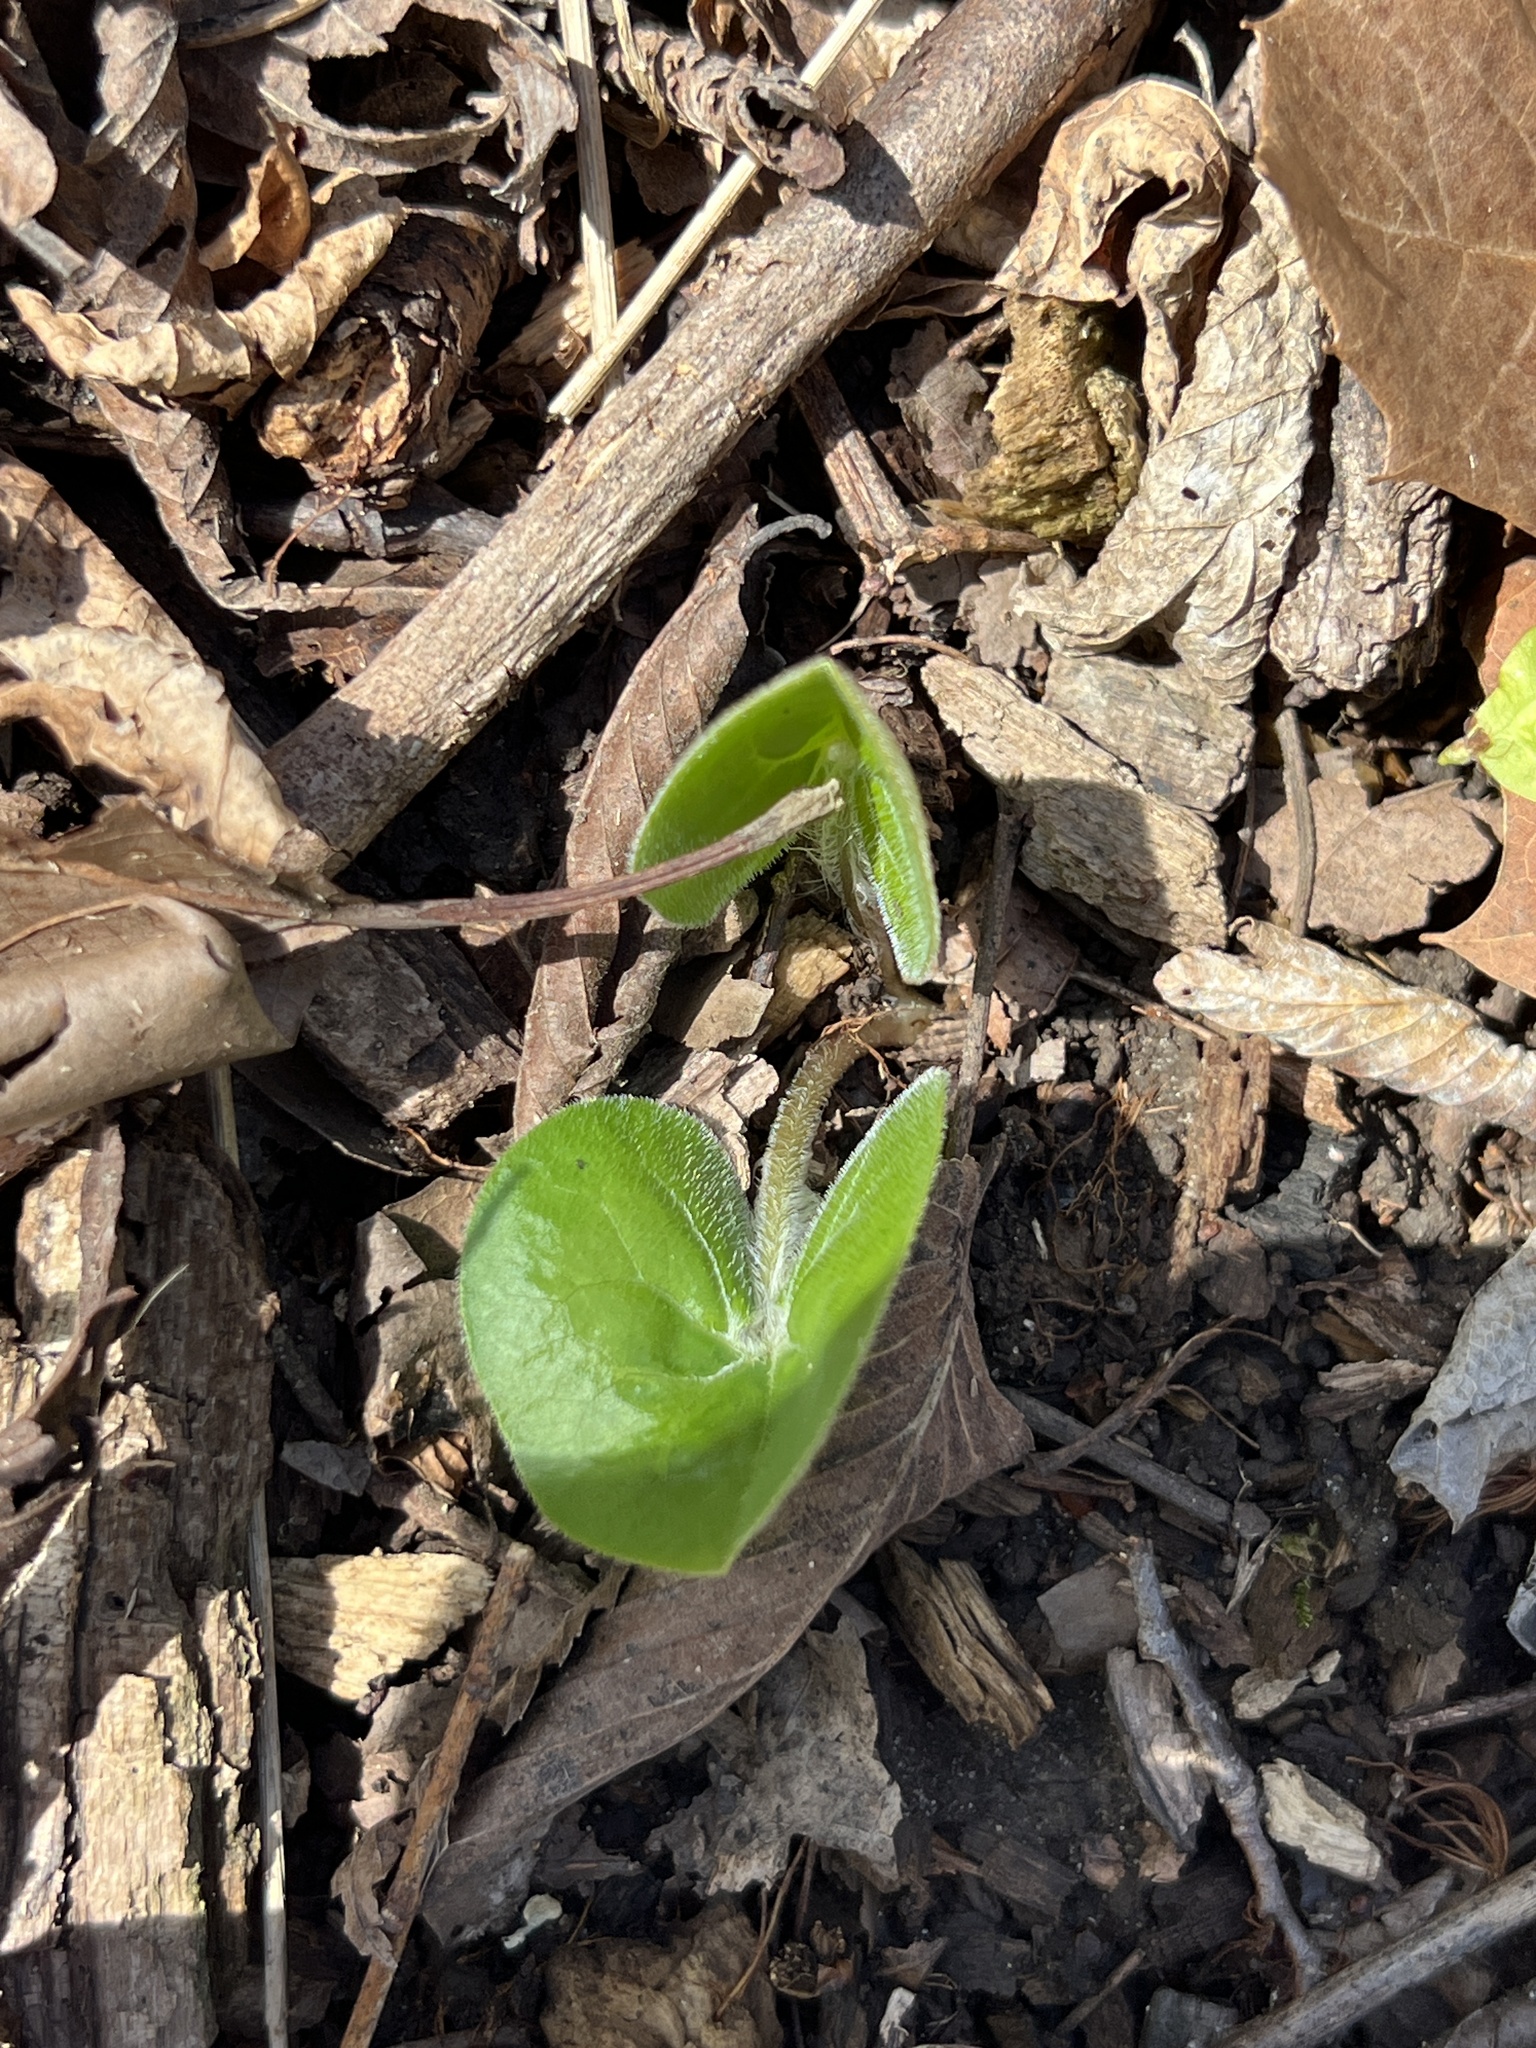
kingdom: Plantae
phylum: Tracheophyta
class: Magnoliopsida
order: Piperales
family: Aristolochiaceae
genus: Asarum
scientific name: Asarum canadense
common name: Wild ginger
